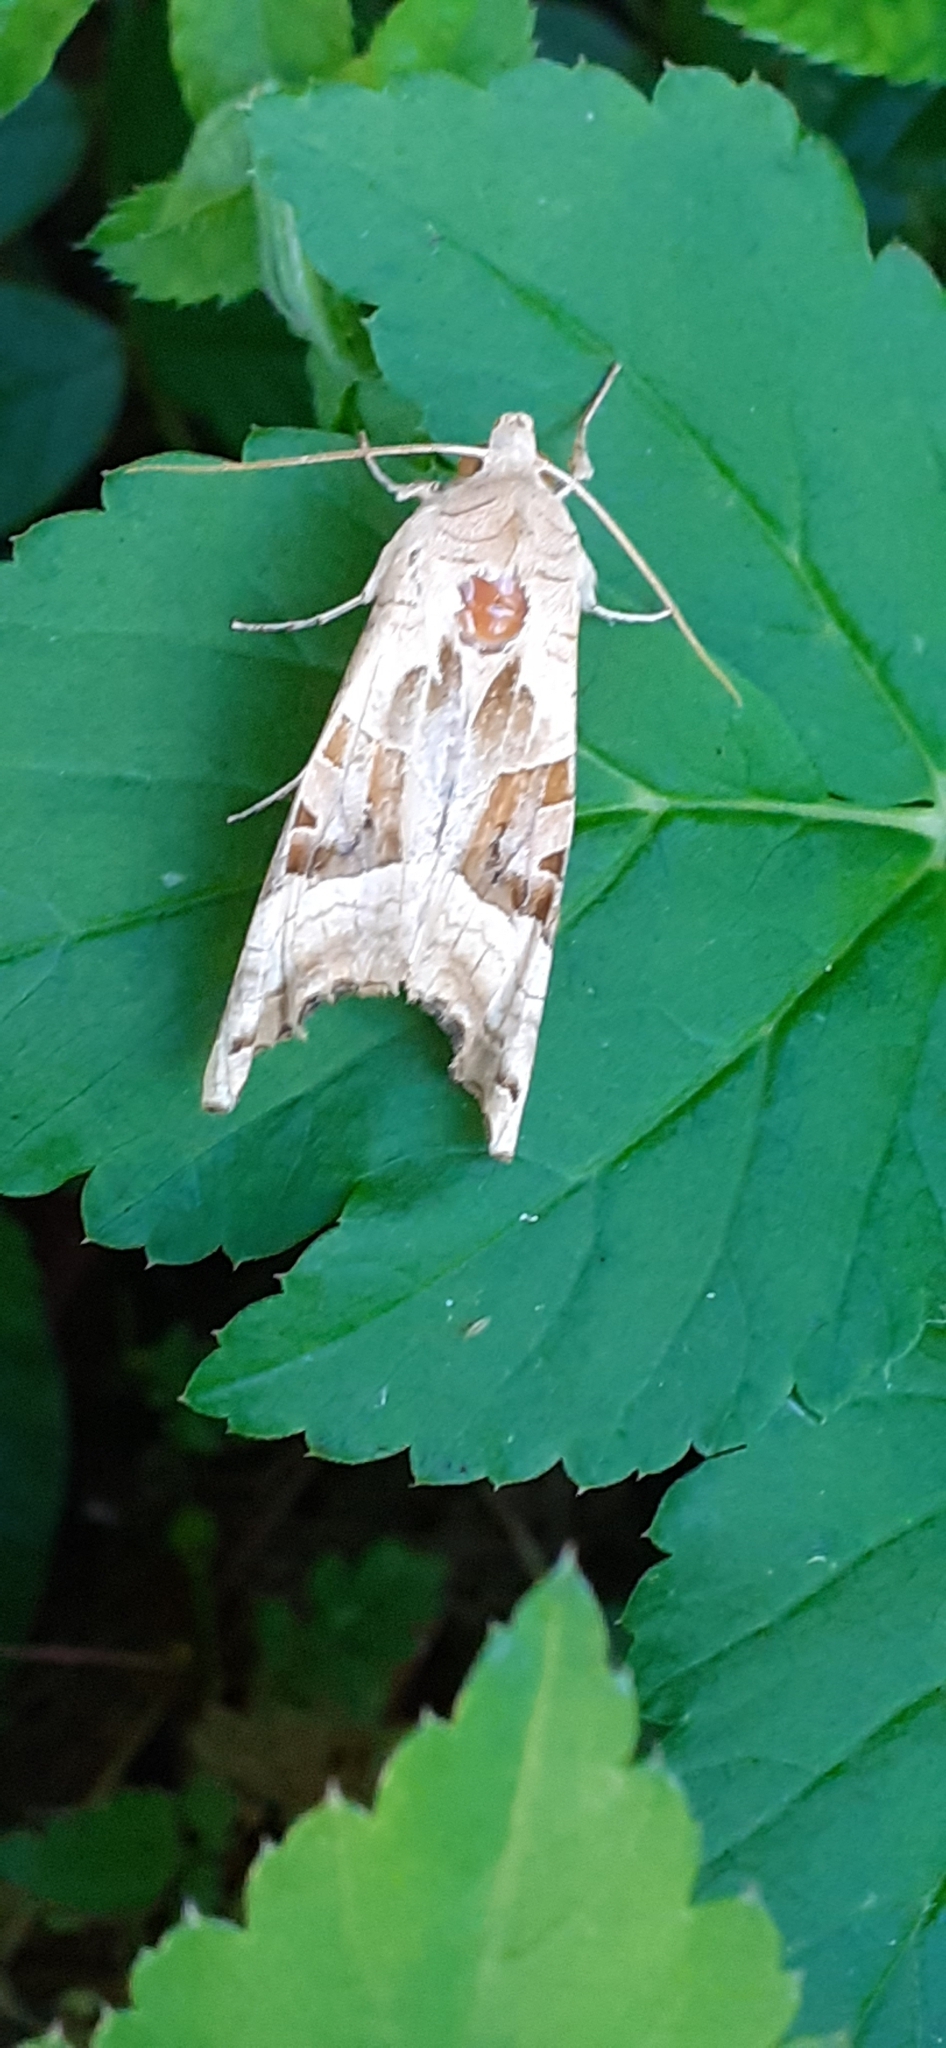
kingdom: Animalia
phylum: Arthropoda
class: Insecta
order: Lepidoptera
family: Noctuidae
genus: Phlogophora
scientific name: Phlogophora meticulosa
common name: Angle shades
